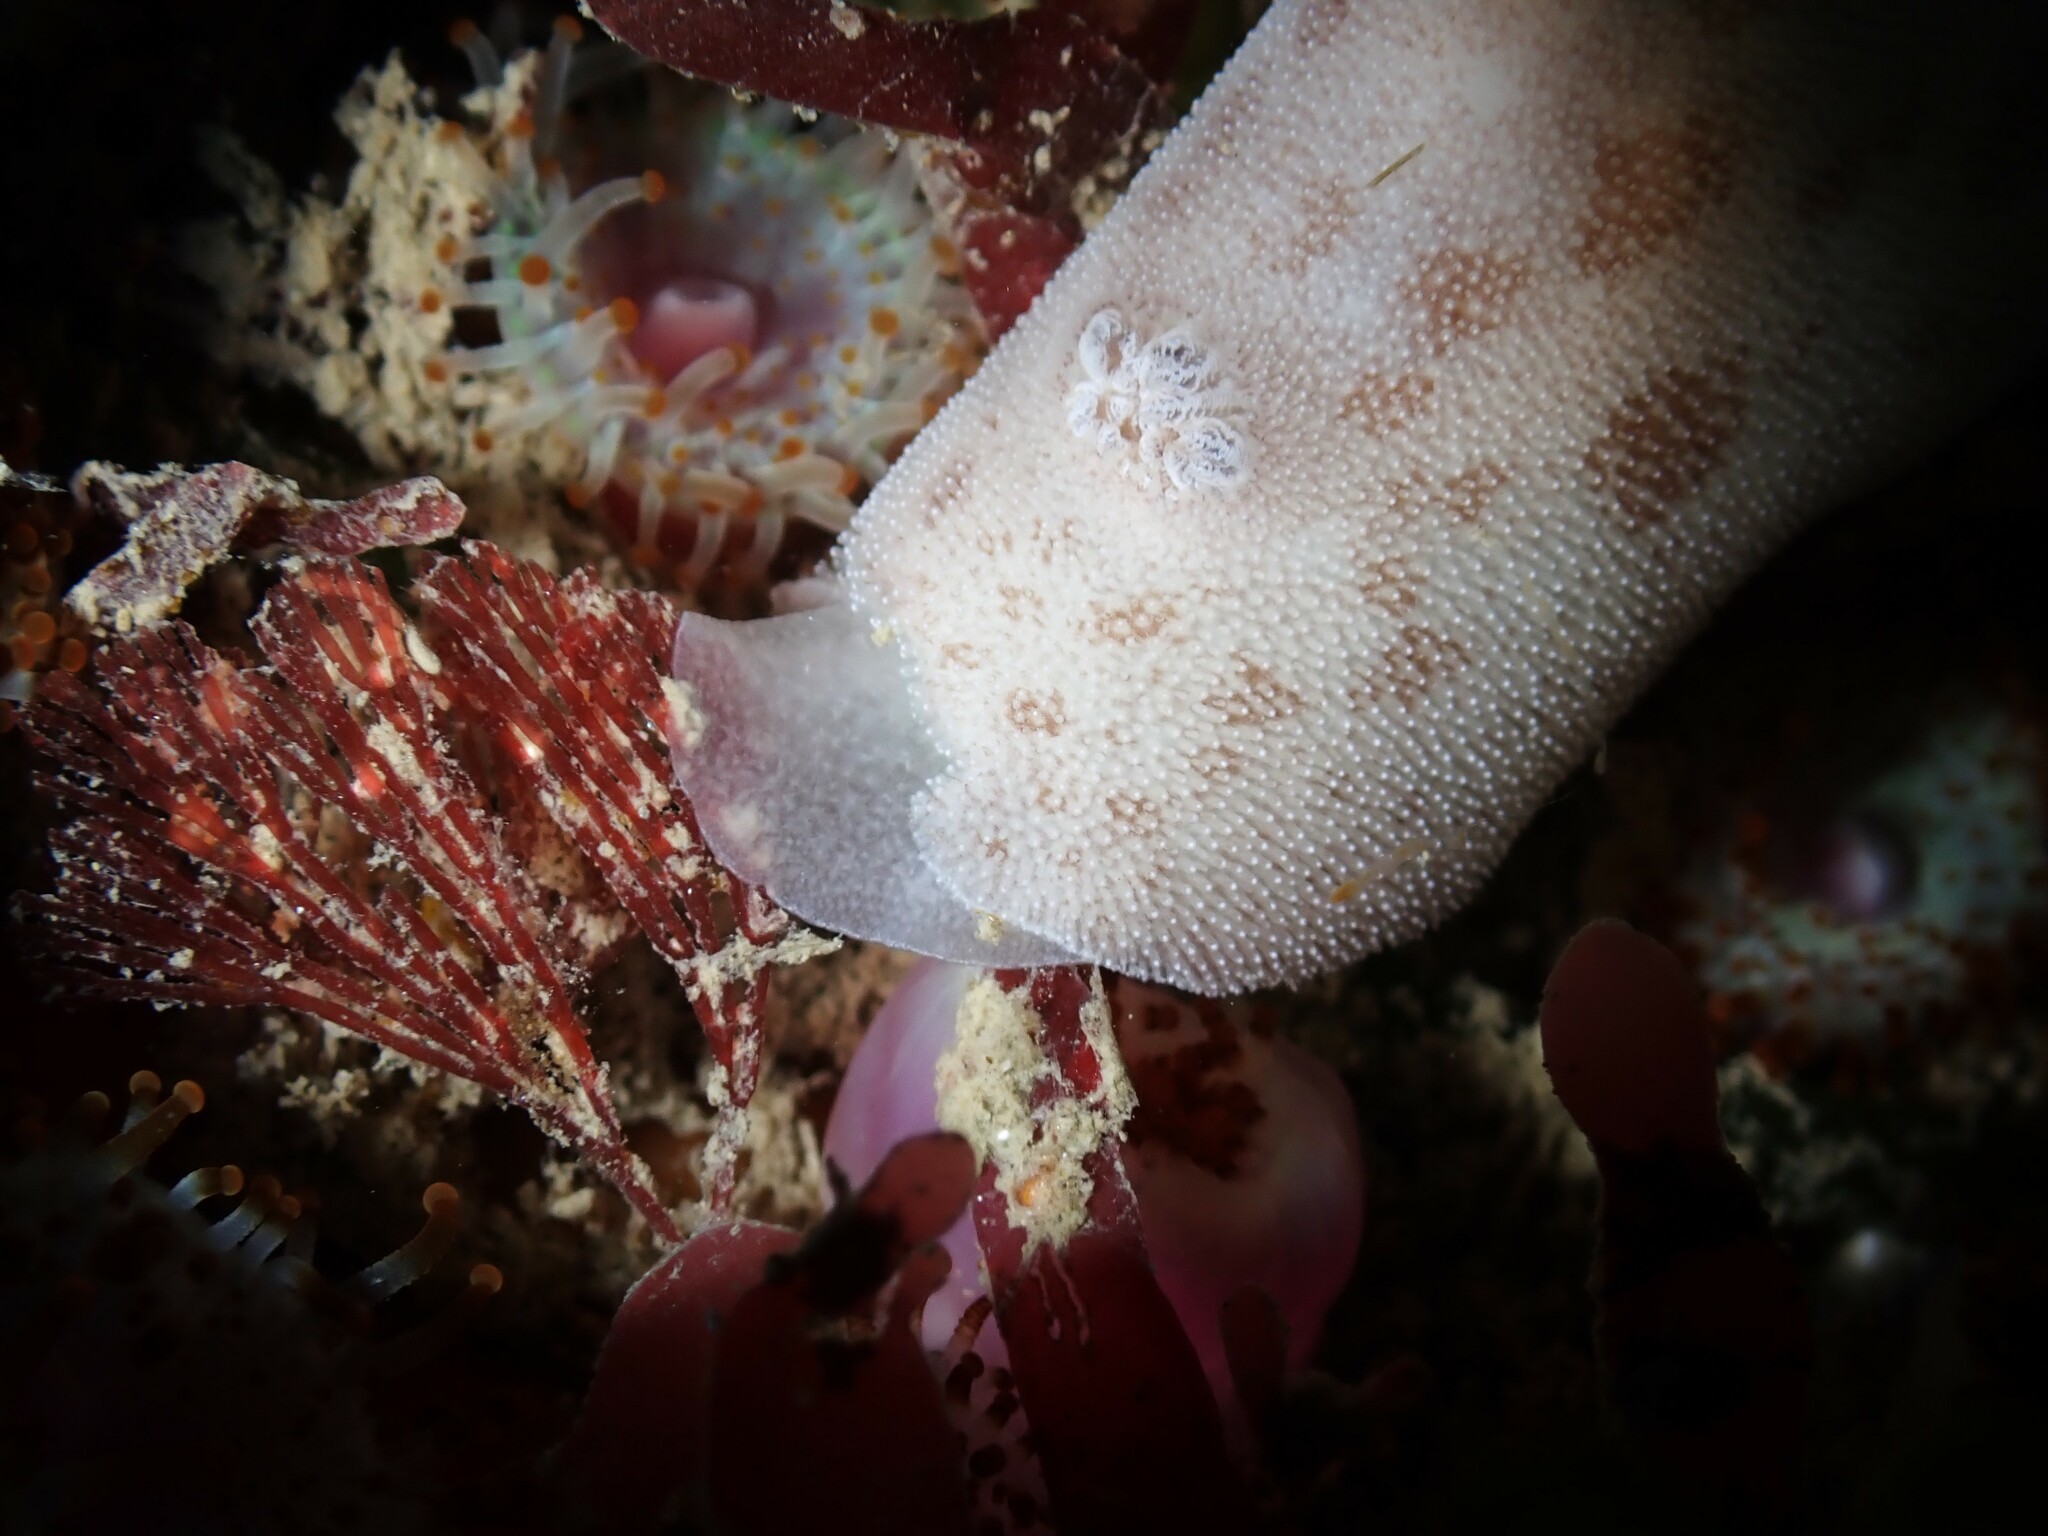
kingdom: Animalia
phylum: Mollusca
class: Gastropoda
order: Nudibranchia
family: Discodorididae
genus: Alloiodoris
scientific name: Alloiodoris lanuginata
